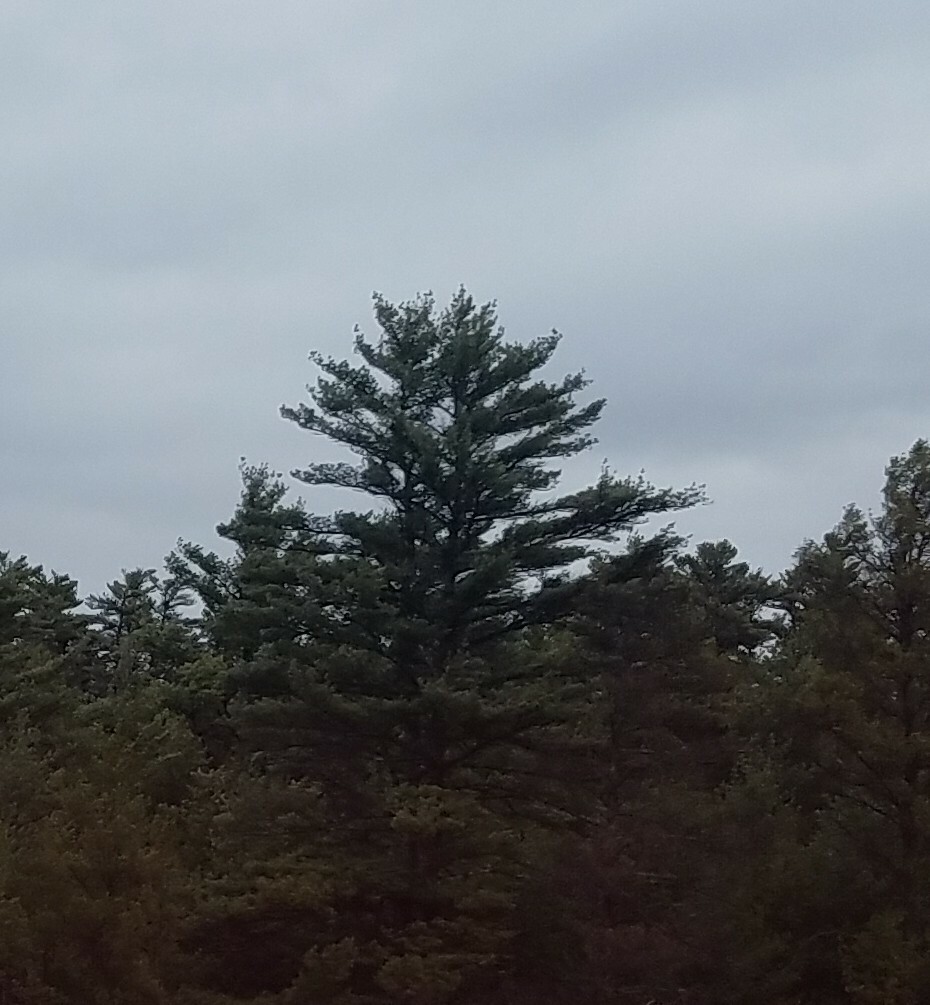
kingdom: Plantae
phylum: Tracheophyta
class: Pinopsida
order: Pinales
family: Pinaceae
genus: Pinus
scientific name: Pinus strobus
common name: Weymouth pine
